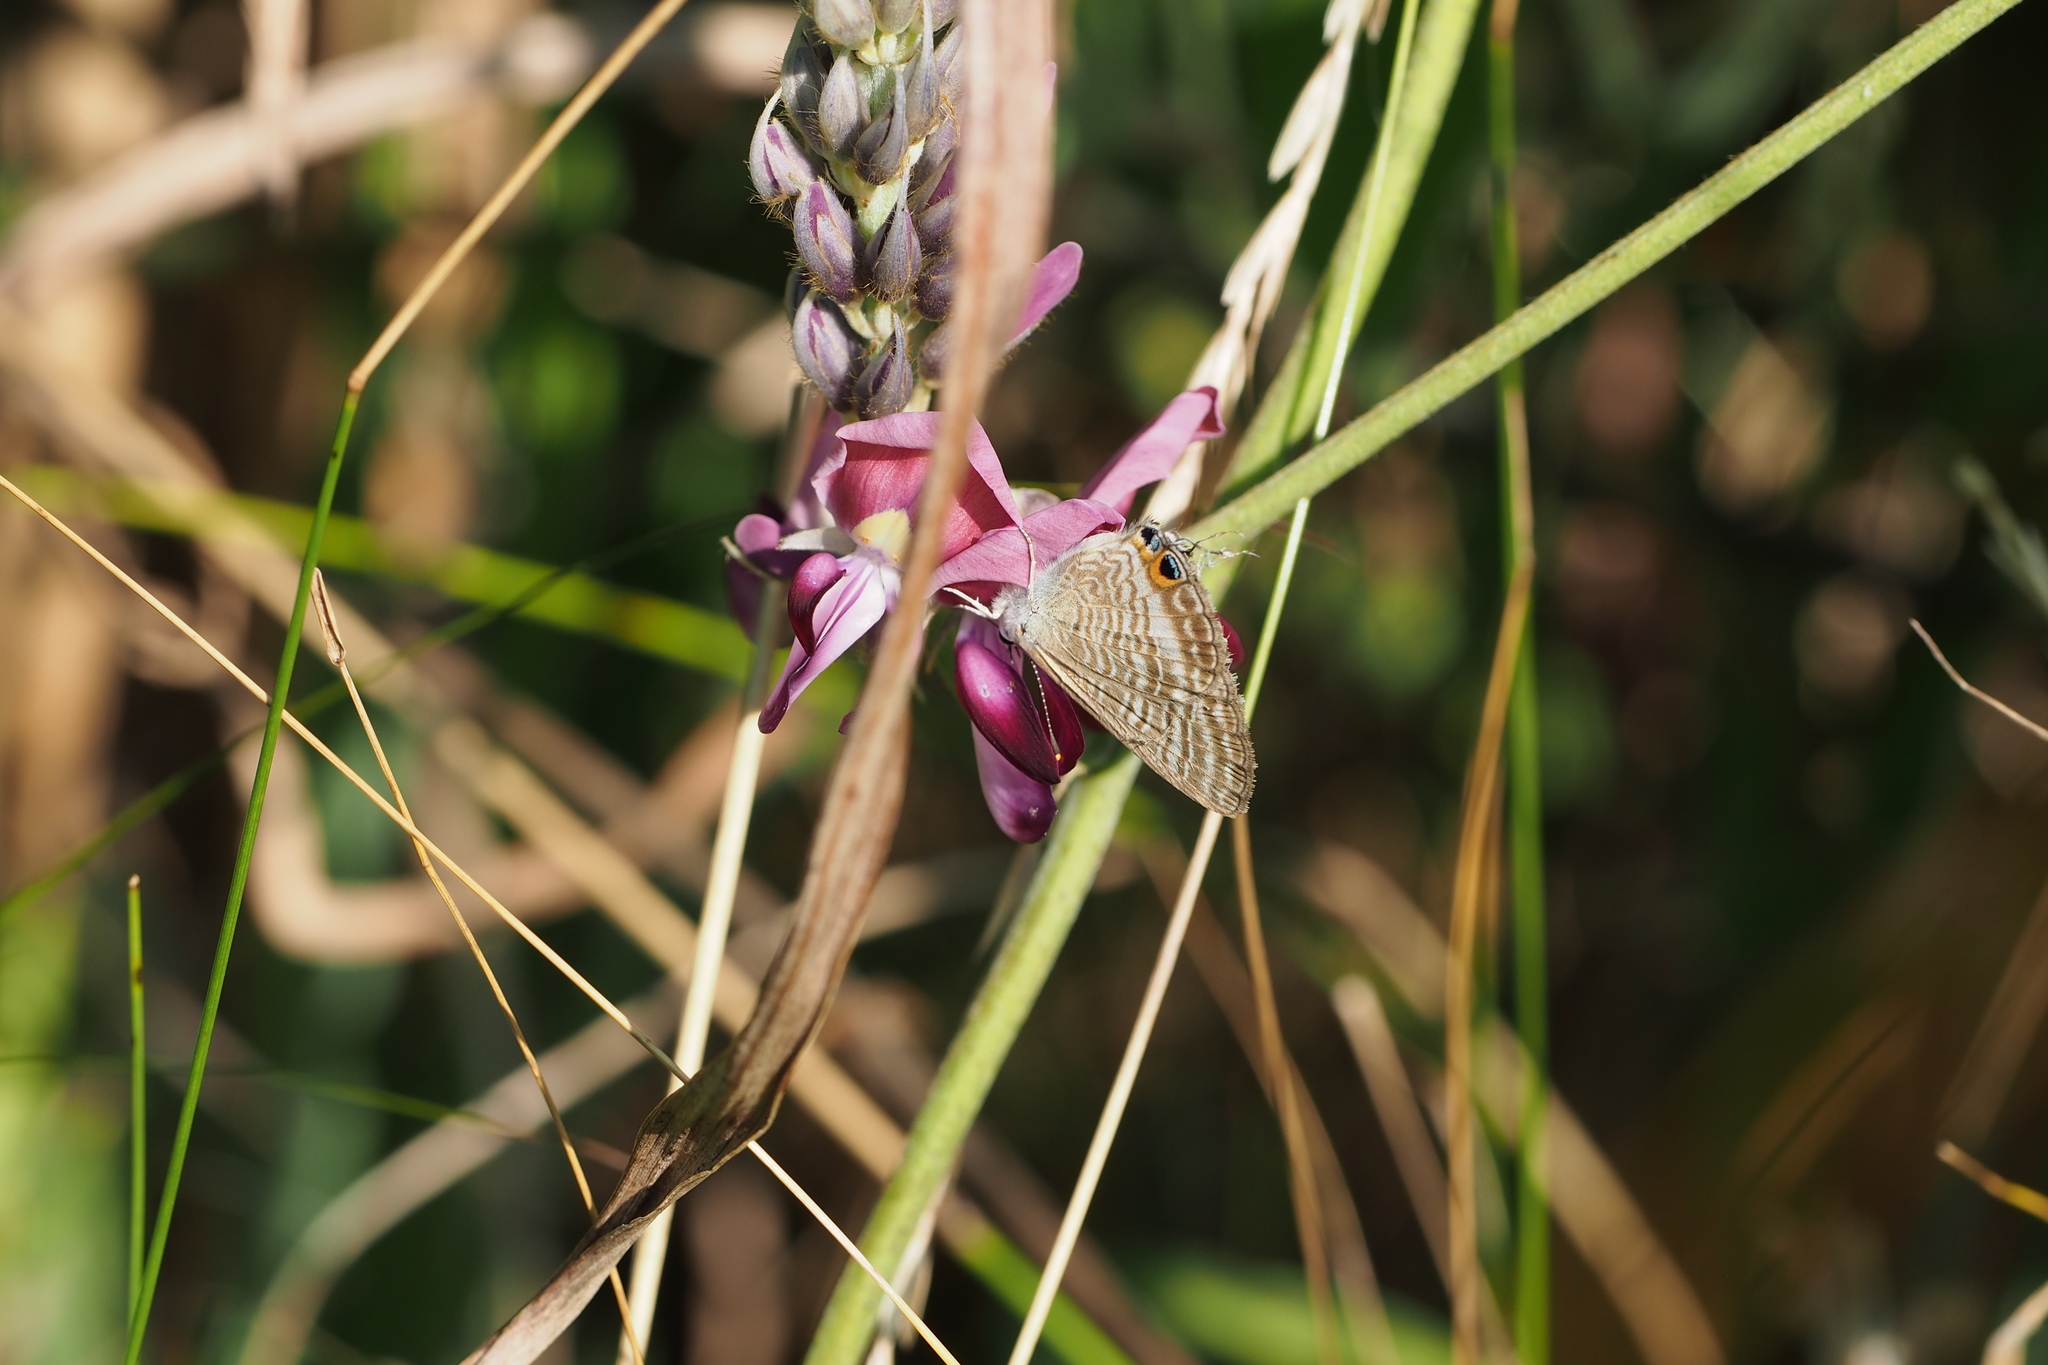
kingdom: Animalia
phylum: Arthropoda
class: Insecta
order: Lepidoptera
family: Lycaenidae
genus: Lampides
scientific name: Lampides boeticus
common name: Long-tailed blue
